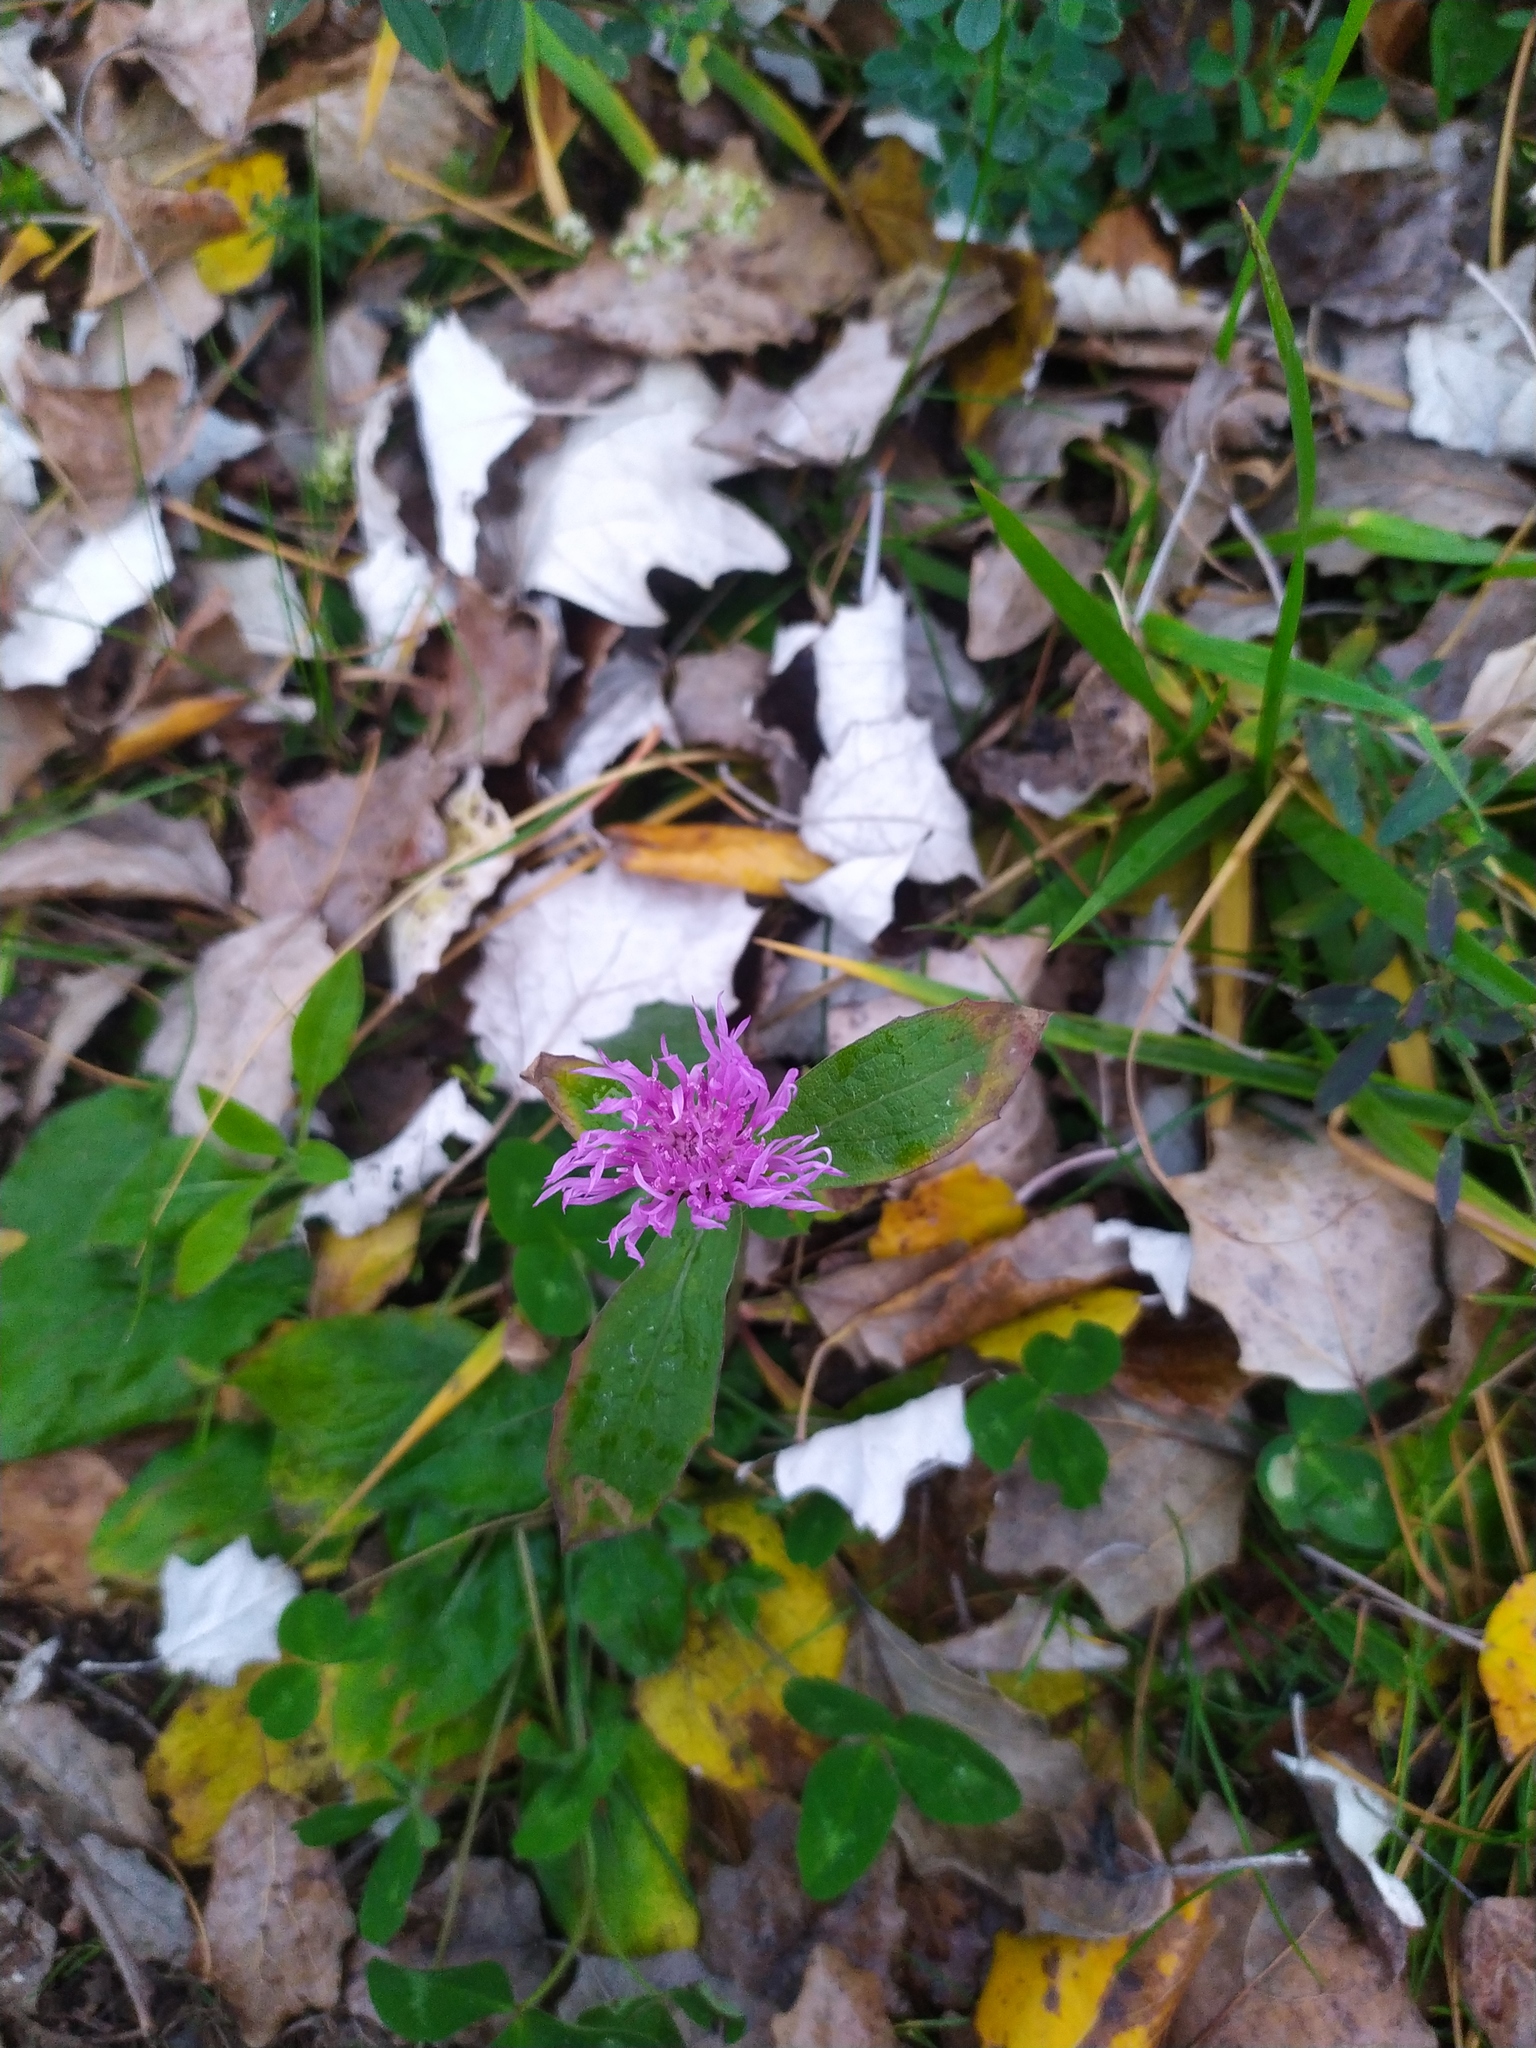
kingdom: Plantae
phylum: Tracheophyta
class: Magnoliopsida
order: Asterales
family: Asteraceae
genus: Centaurea
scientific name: Centaurea jacea
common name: Brown knapweed
